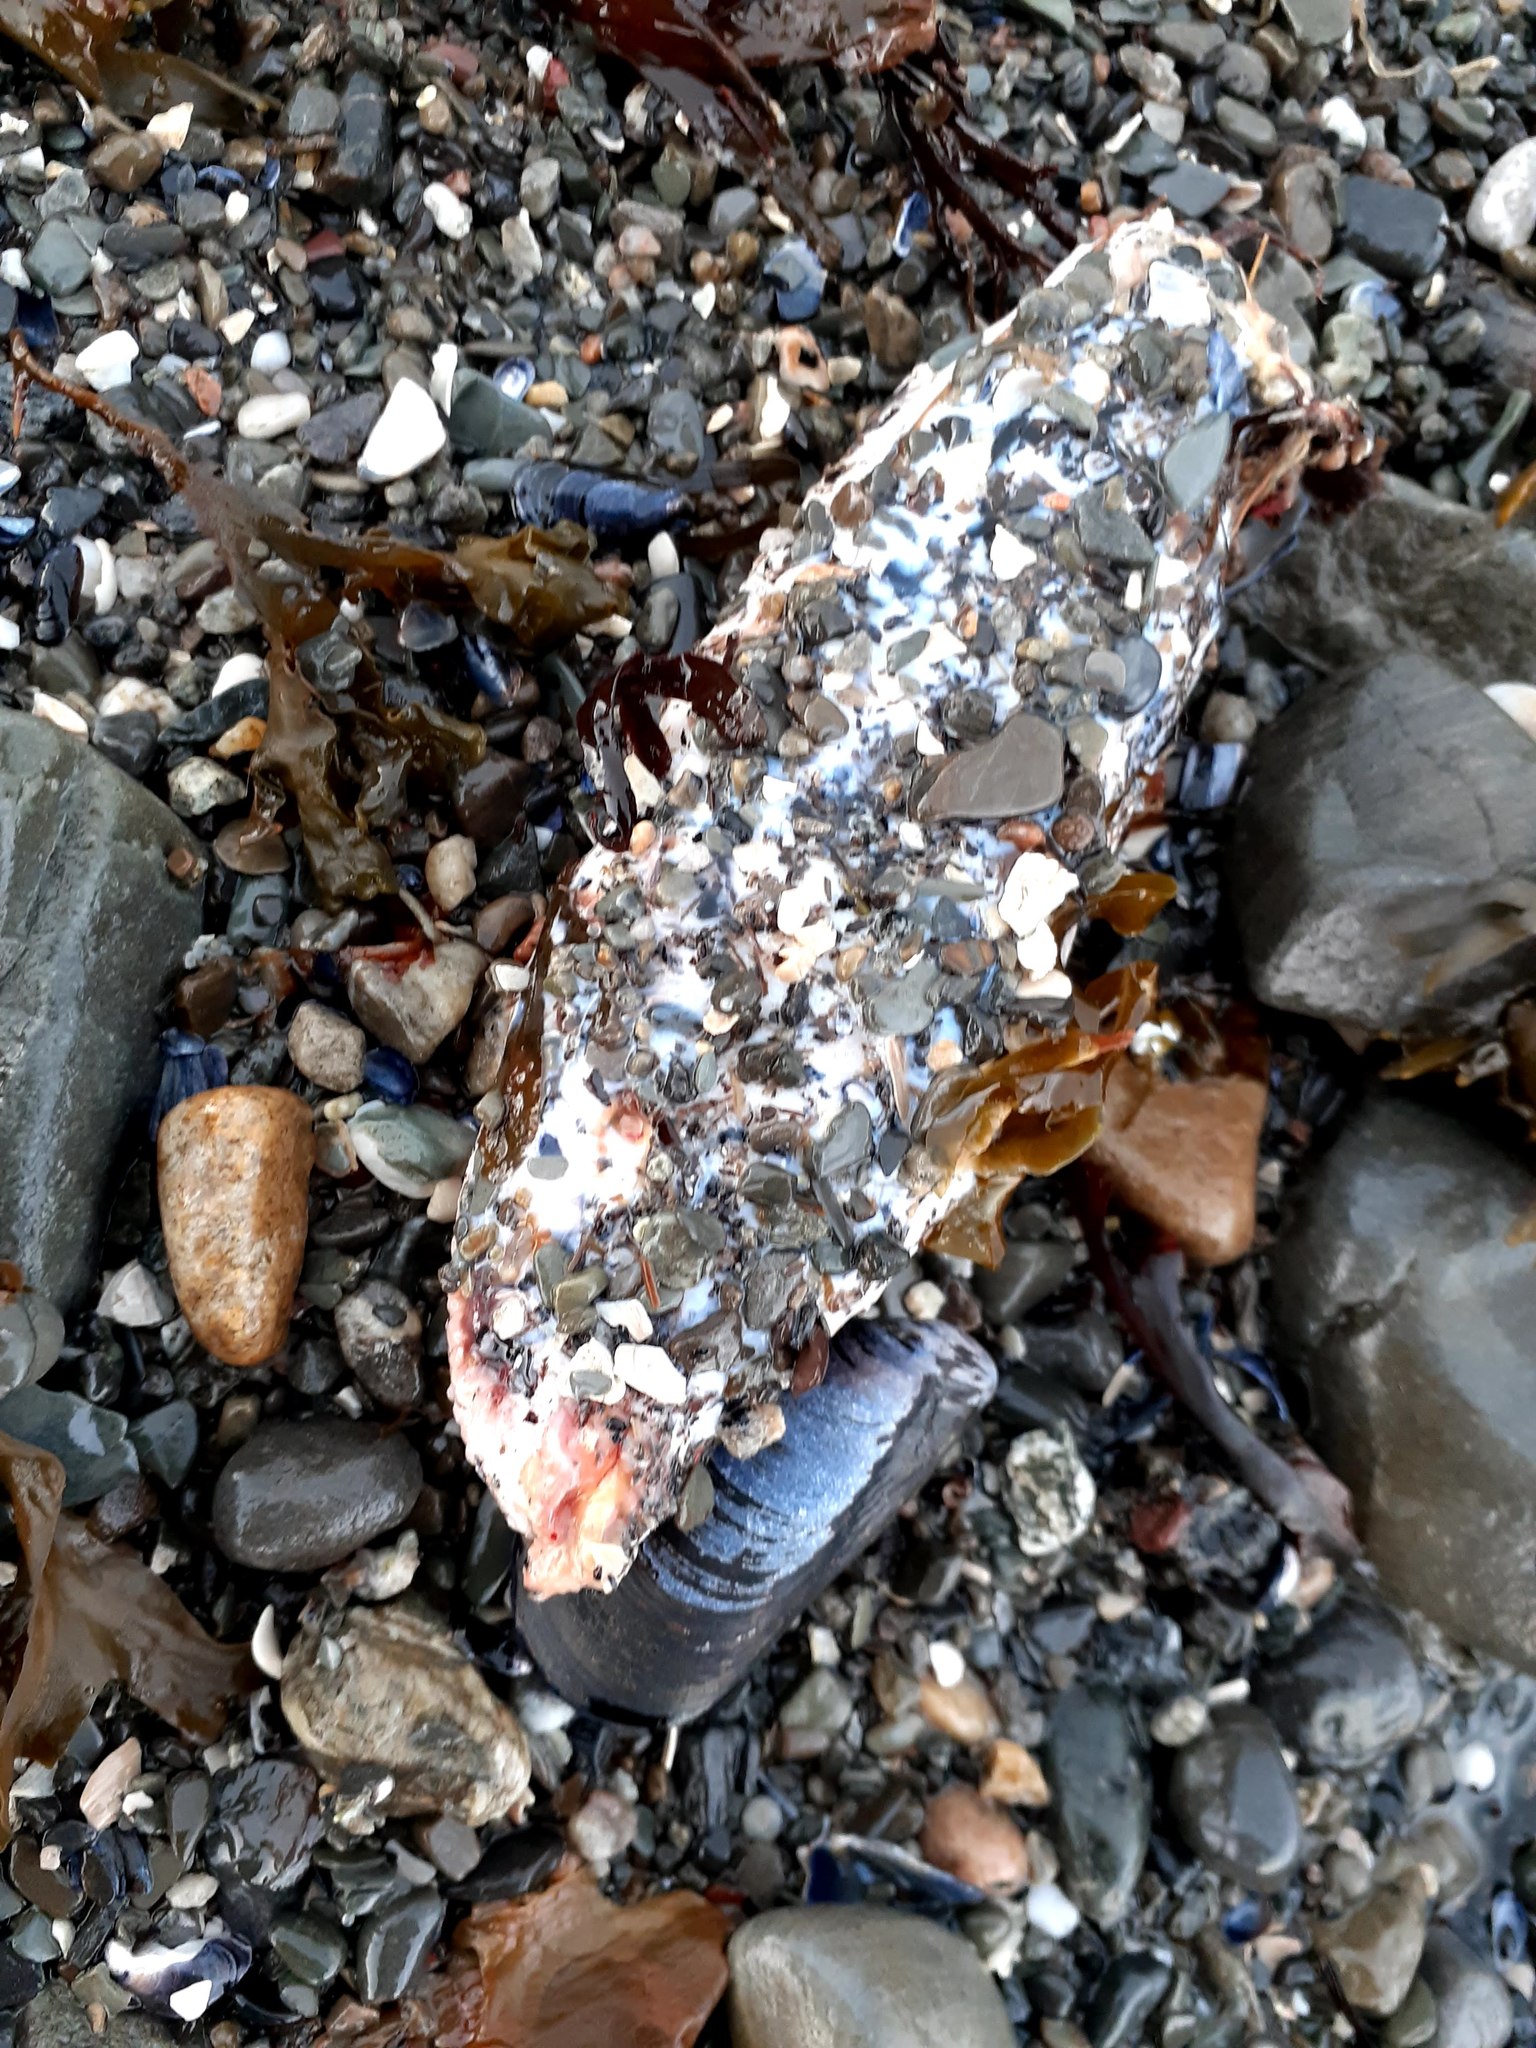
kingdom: Animalia
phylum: Echinodermata
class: Holothuroidea
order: Dendrochirotida
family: Cucumariidae
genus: Cucumaria
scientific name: Cucumaria frondosa
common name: Orange-footed sea cucumber
